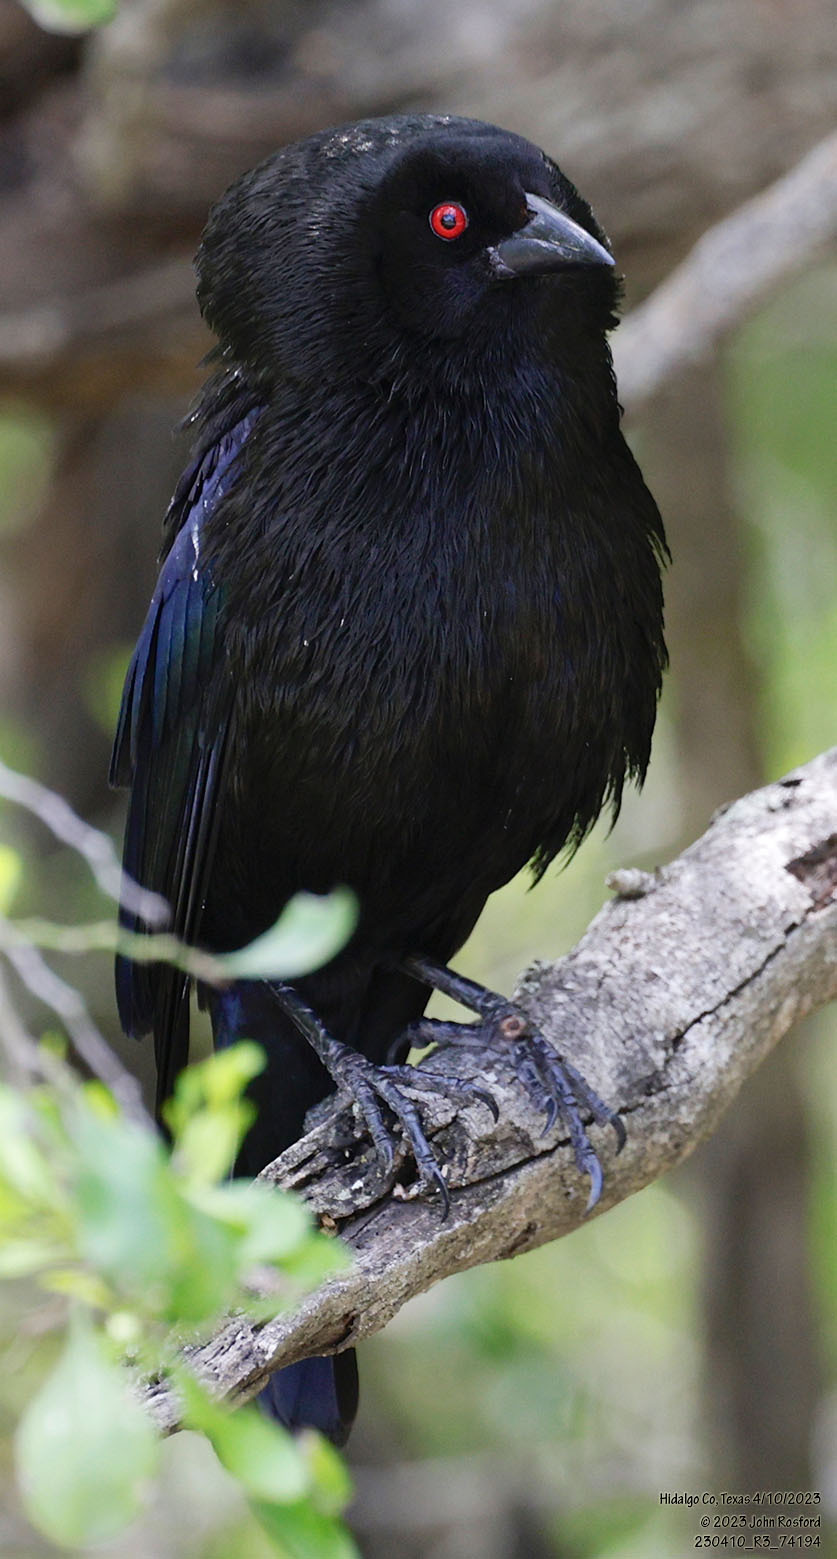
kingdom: Animalia
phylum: Chordata
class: Aves
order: Passeriformes
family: Icteridae
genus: Molothrus
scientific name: Molothrus aeneus
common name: Bronzed cowbird
